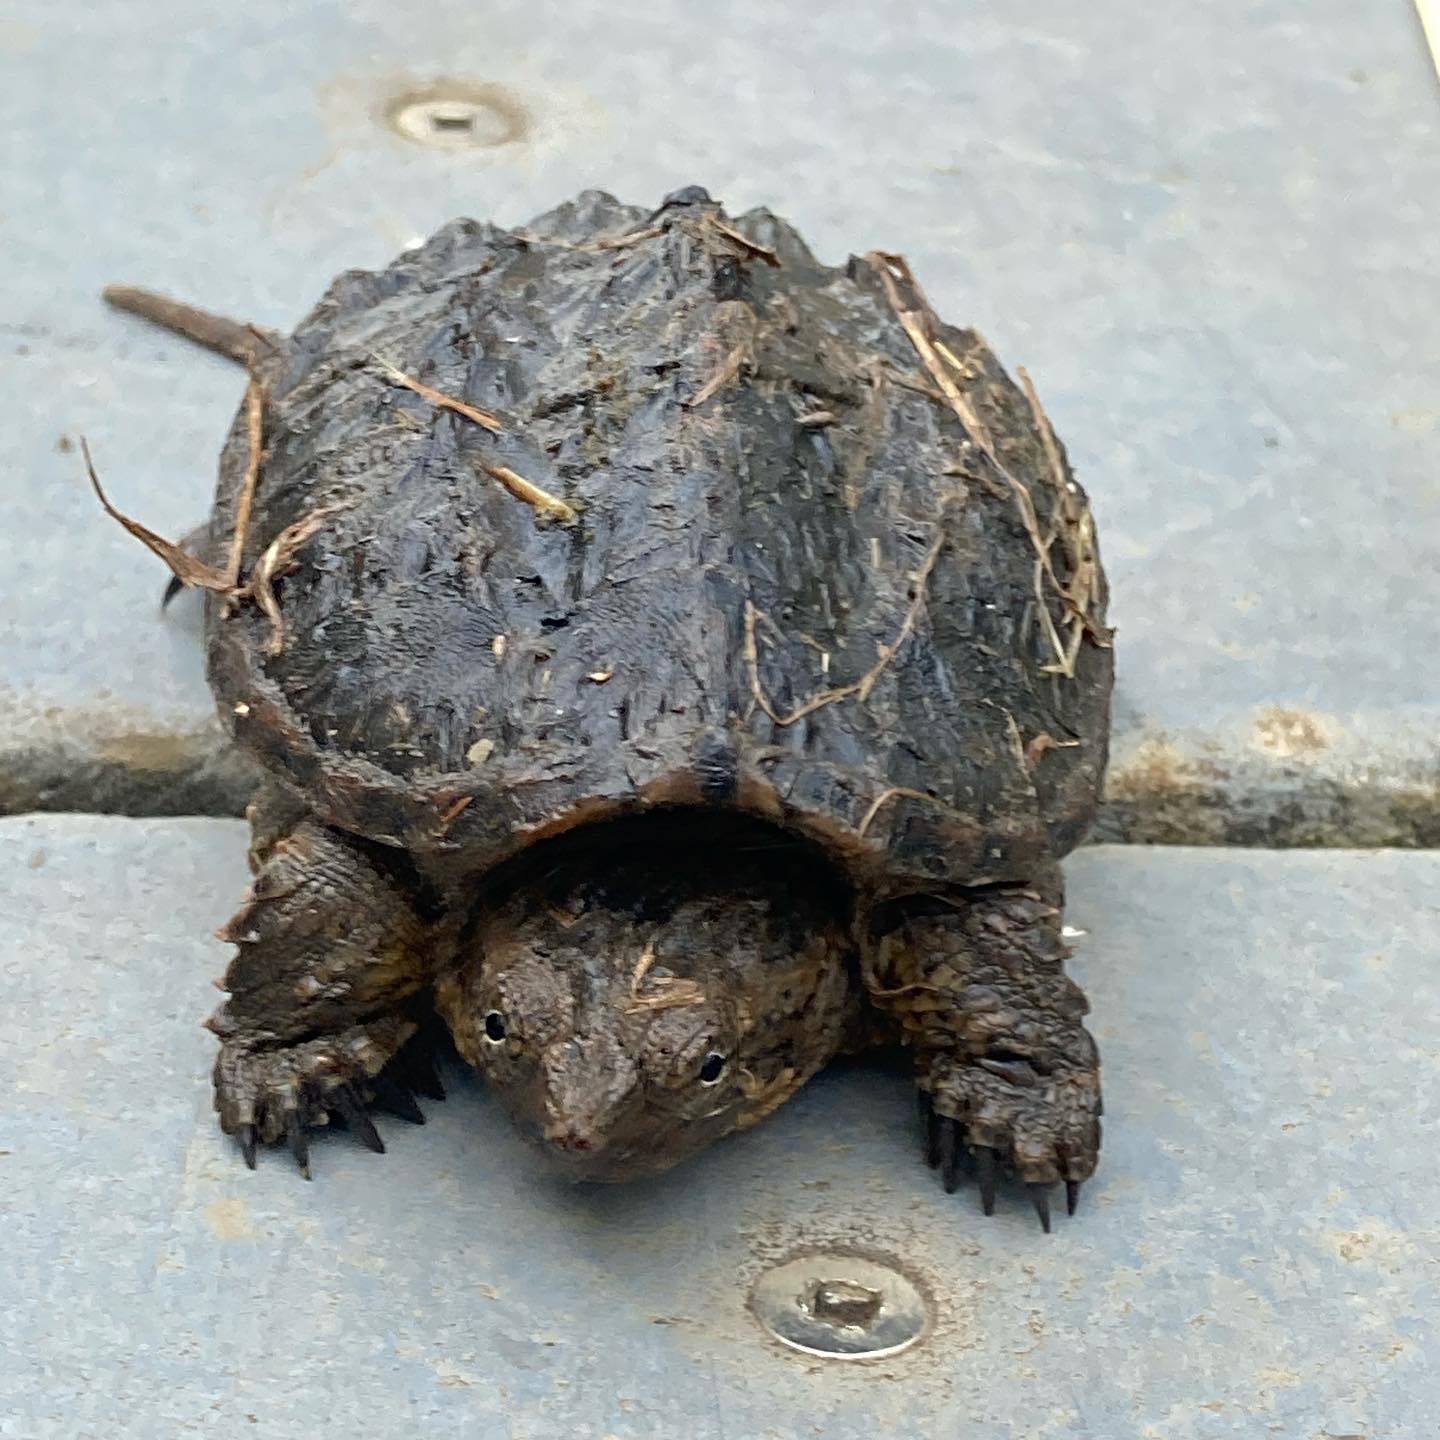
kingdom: Animalia
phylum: Chordata
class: Testudines
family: Chelydridae
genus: Chelydra
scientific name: Chelydra serpentina
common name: Common snapping turtle
